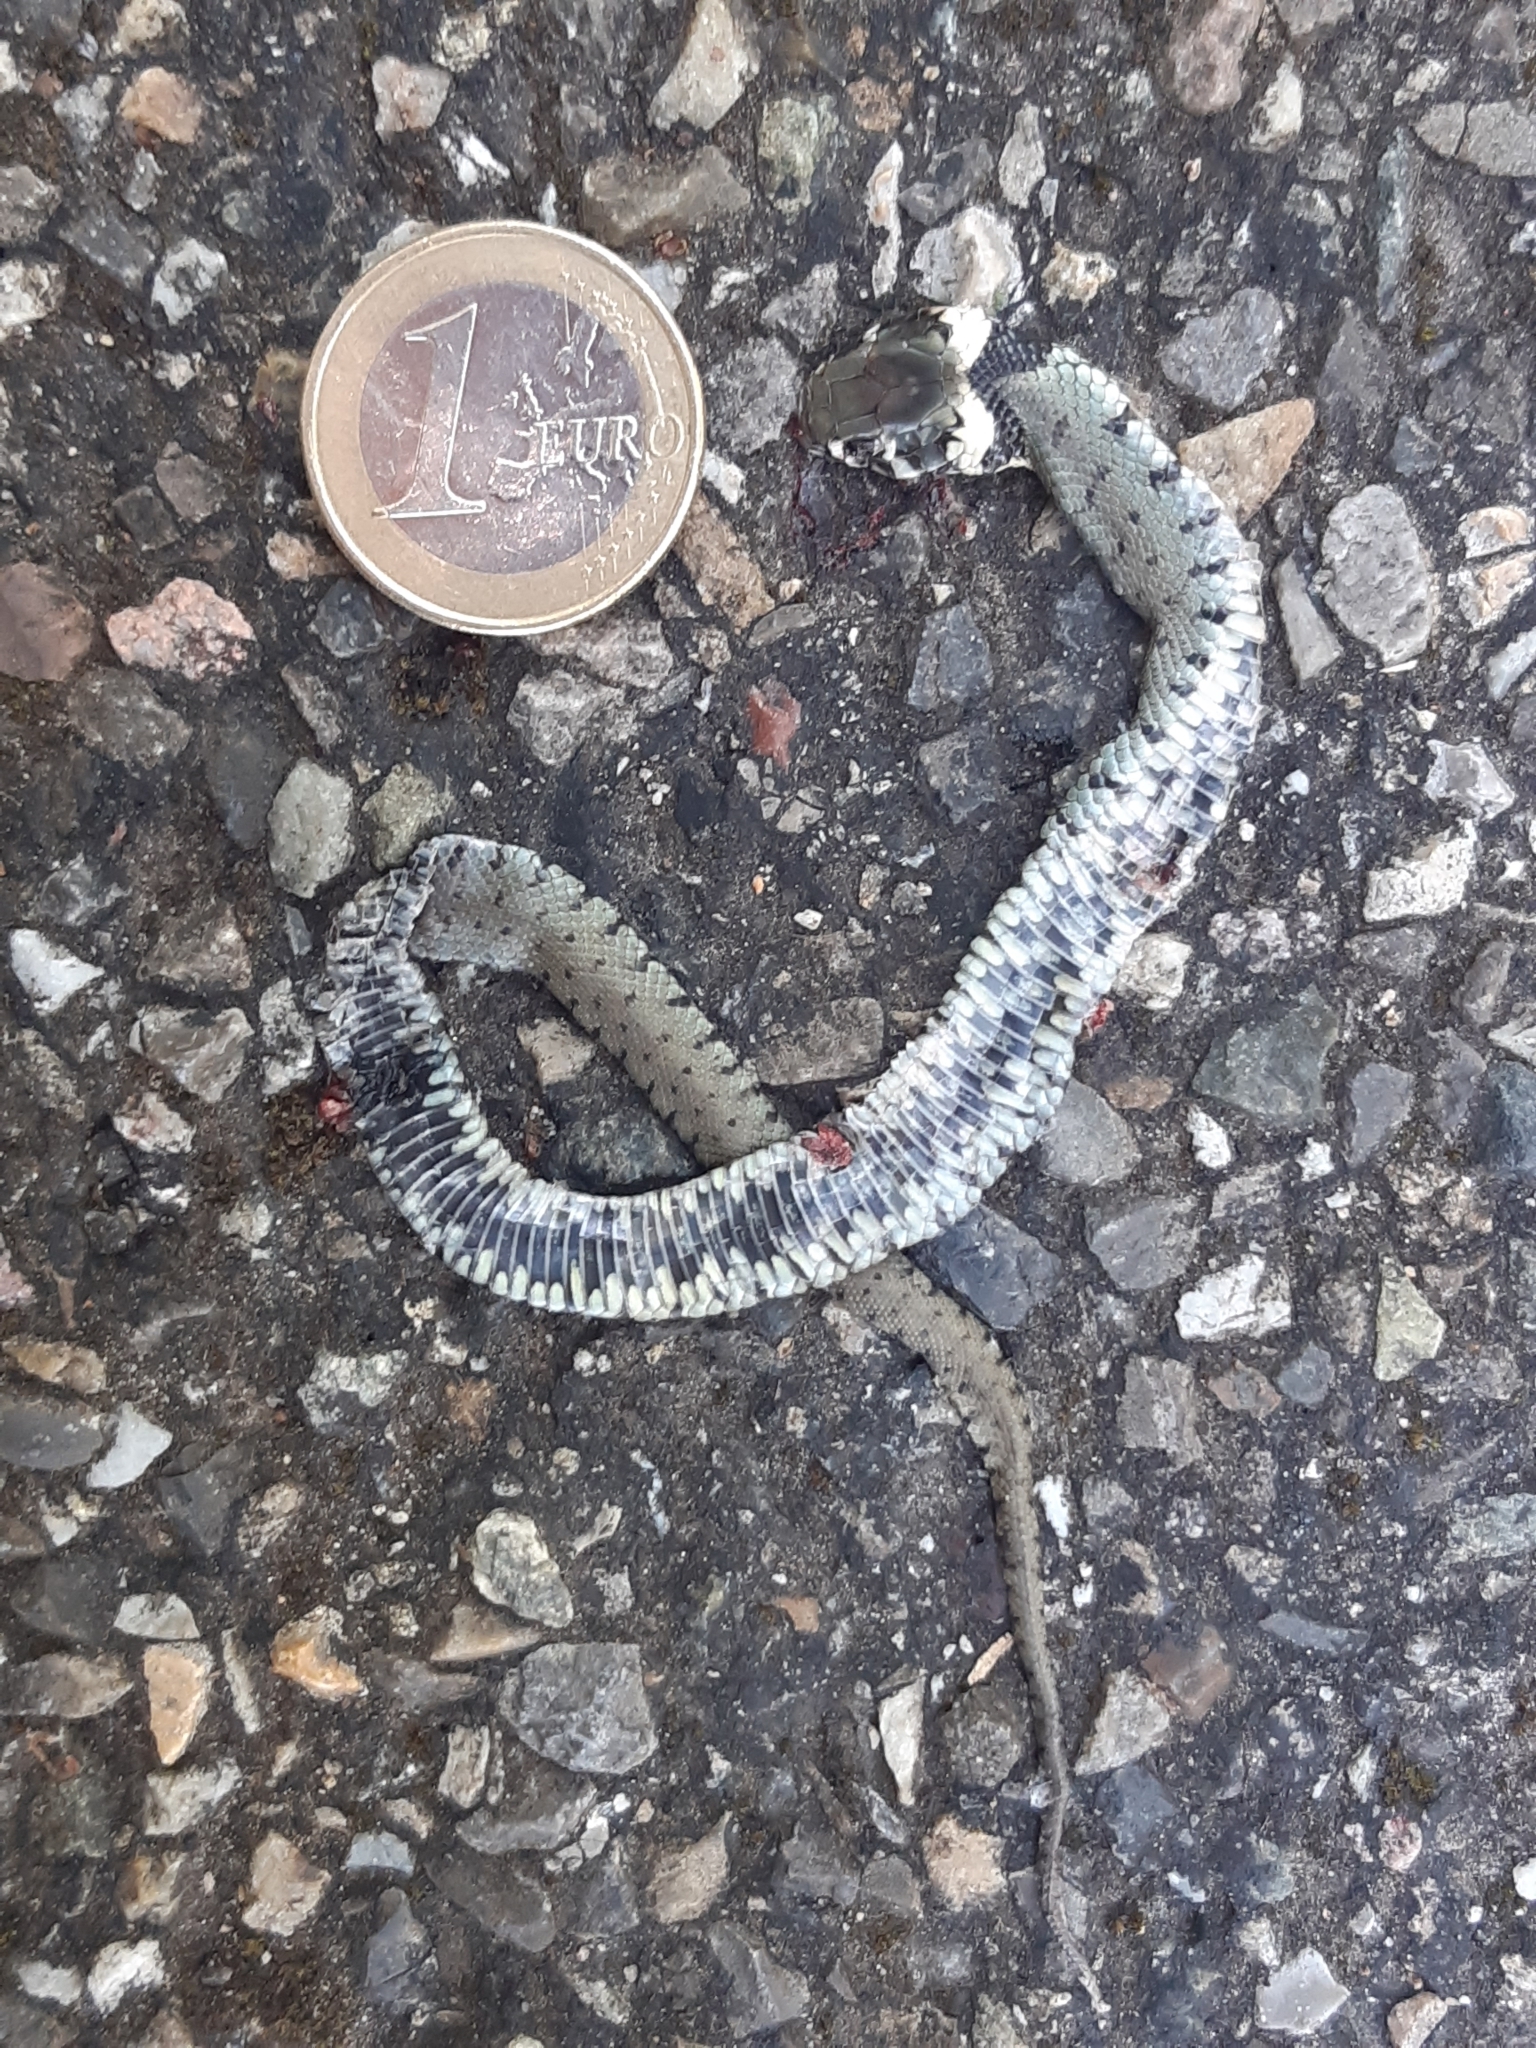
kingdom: Animalia
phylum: Chordata
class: Squamata
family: Colubridae
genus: Natrix
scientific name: Natrix helvetica
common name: Banded grass snake
